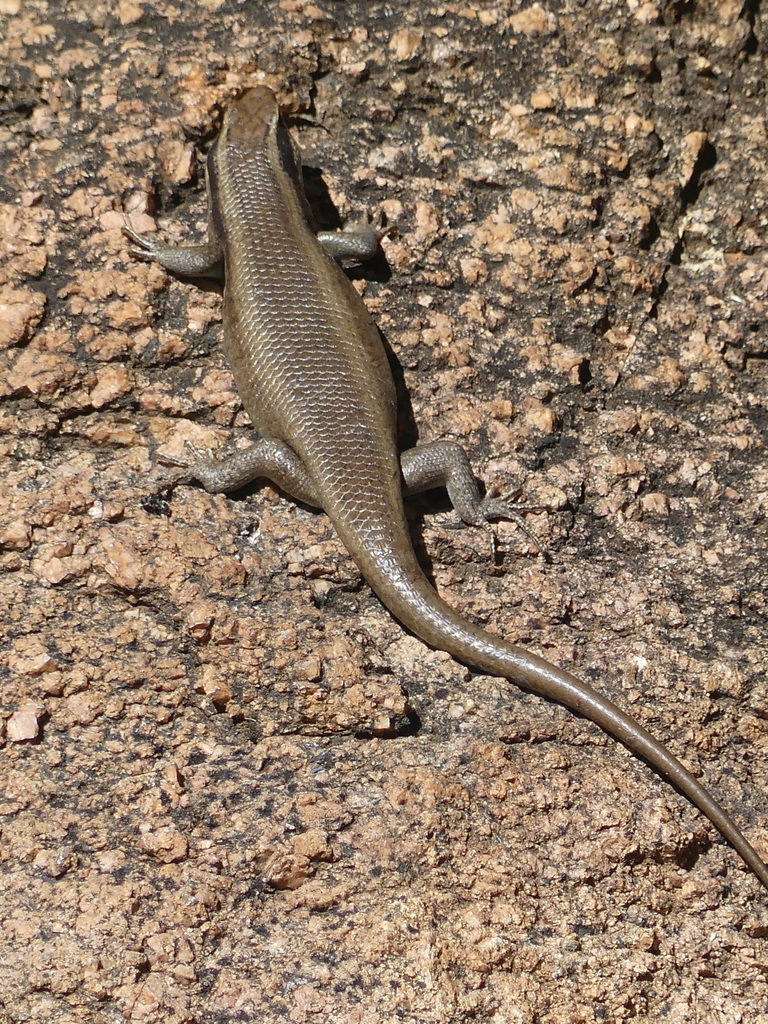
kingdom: Animalia
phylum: Chordata
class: Squamata
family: Scincidae
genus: Trachylepis
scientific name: Trachylepis wahlbergii
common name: Wahlberg’s striped skink
